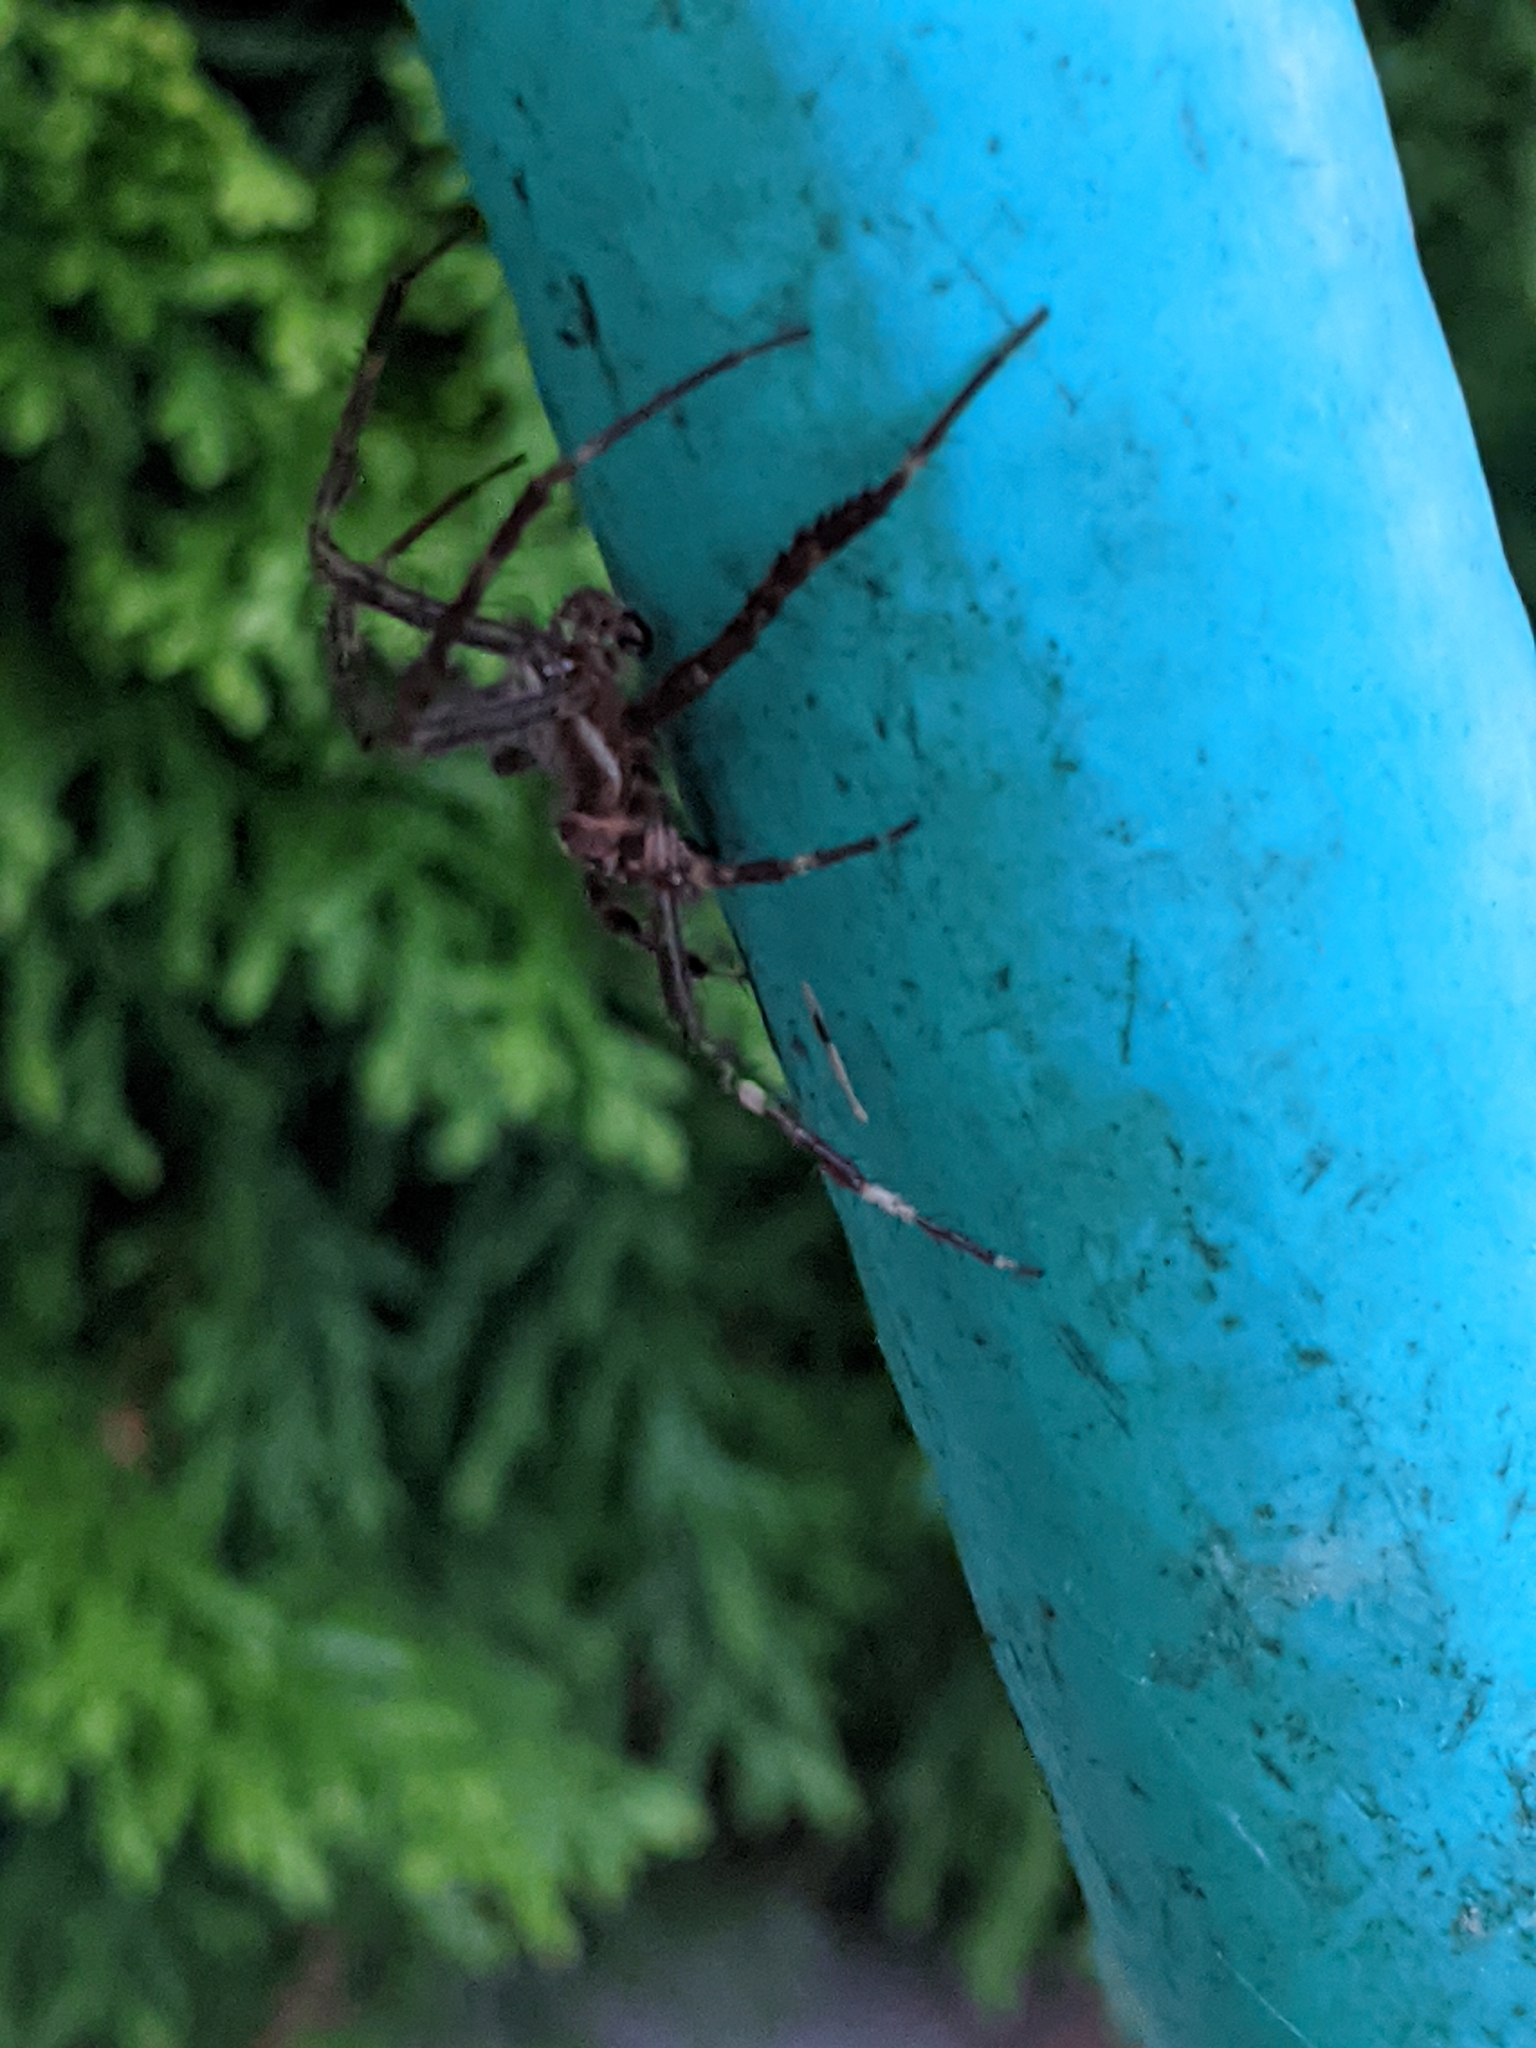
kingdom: Animalia
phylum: Arthropoda
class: Arachnida
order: Araneae
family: Araneidae
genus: Araneus
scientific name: Araneus diadematus
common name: Cross orbweaver
